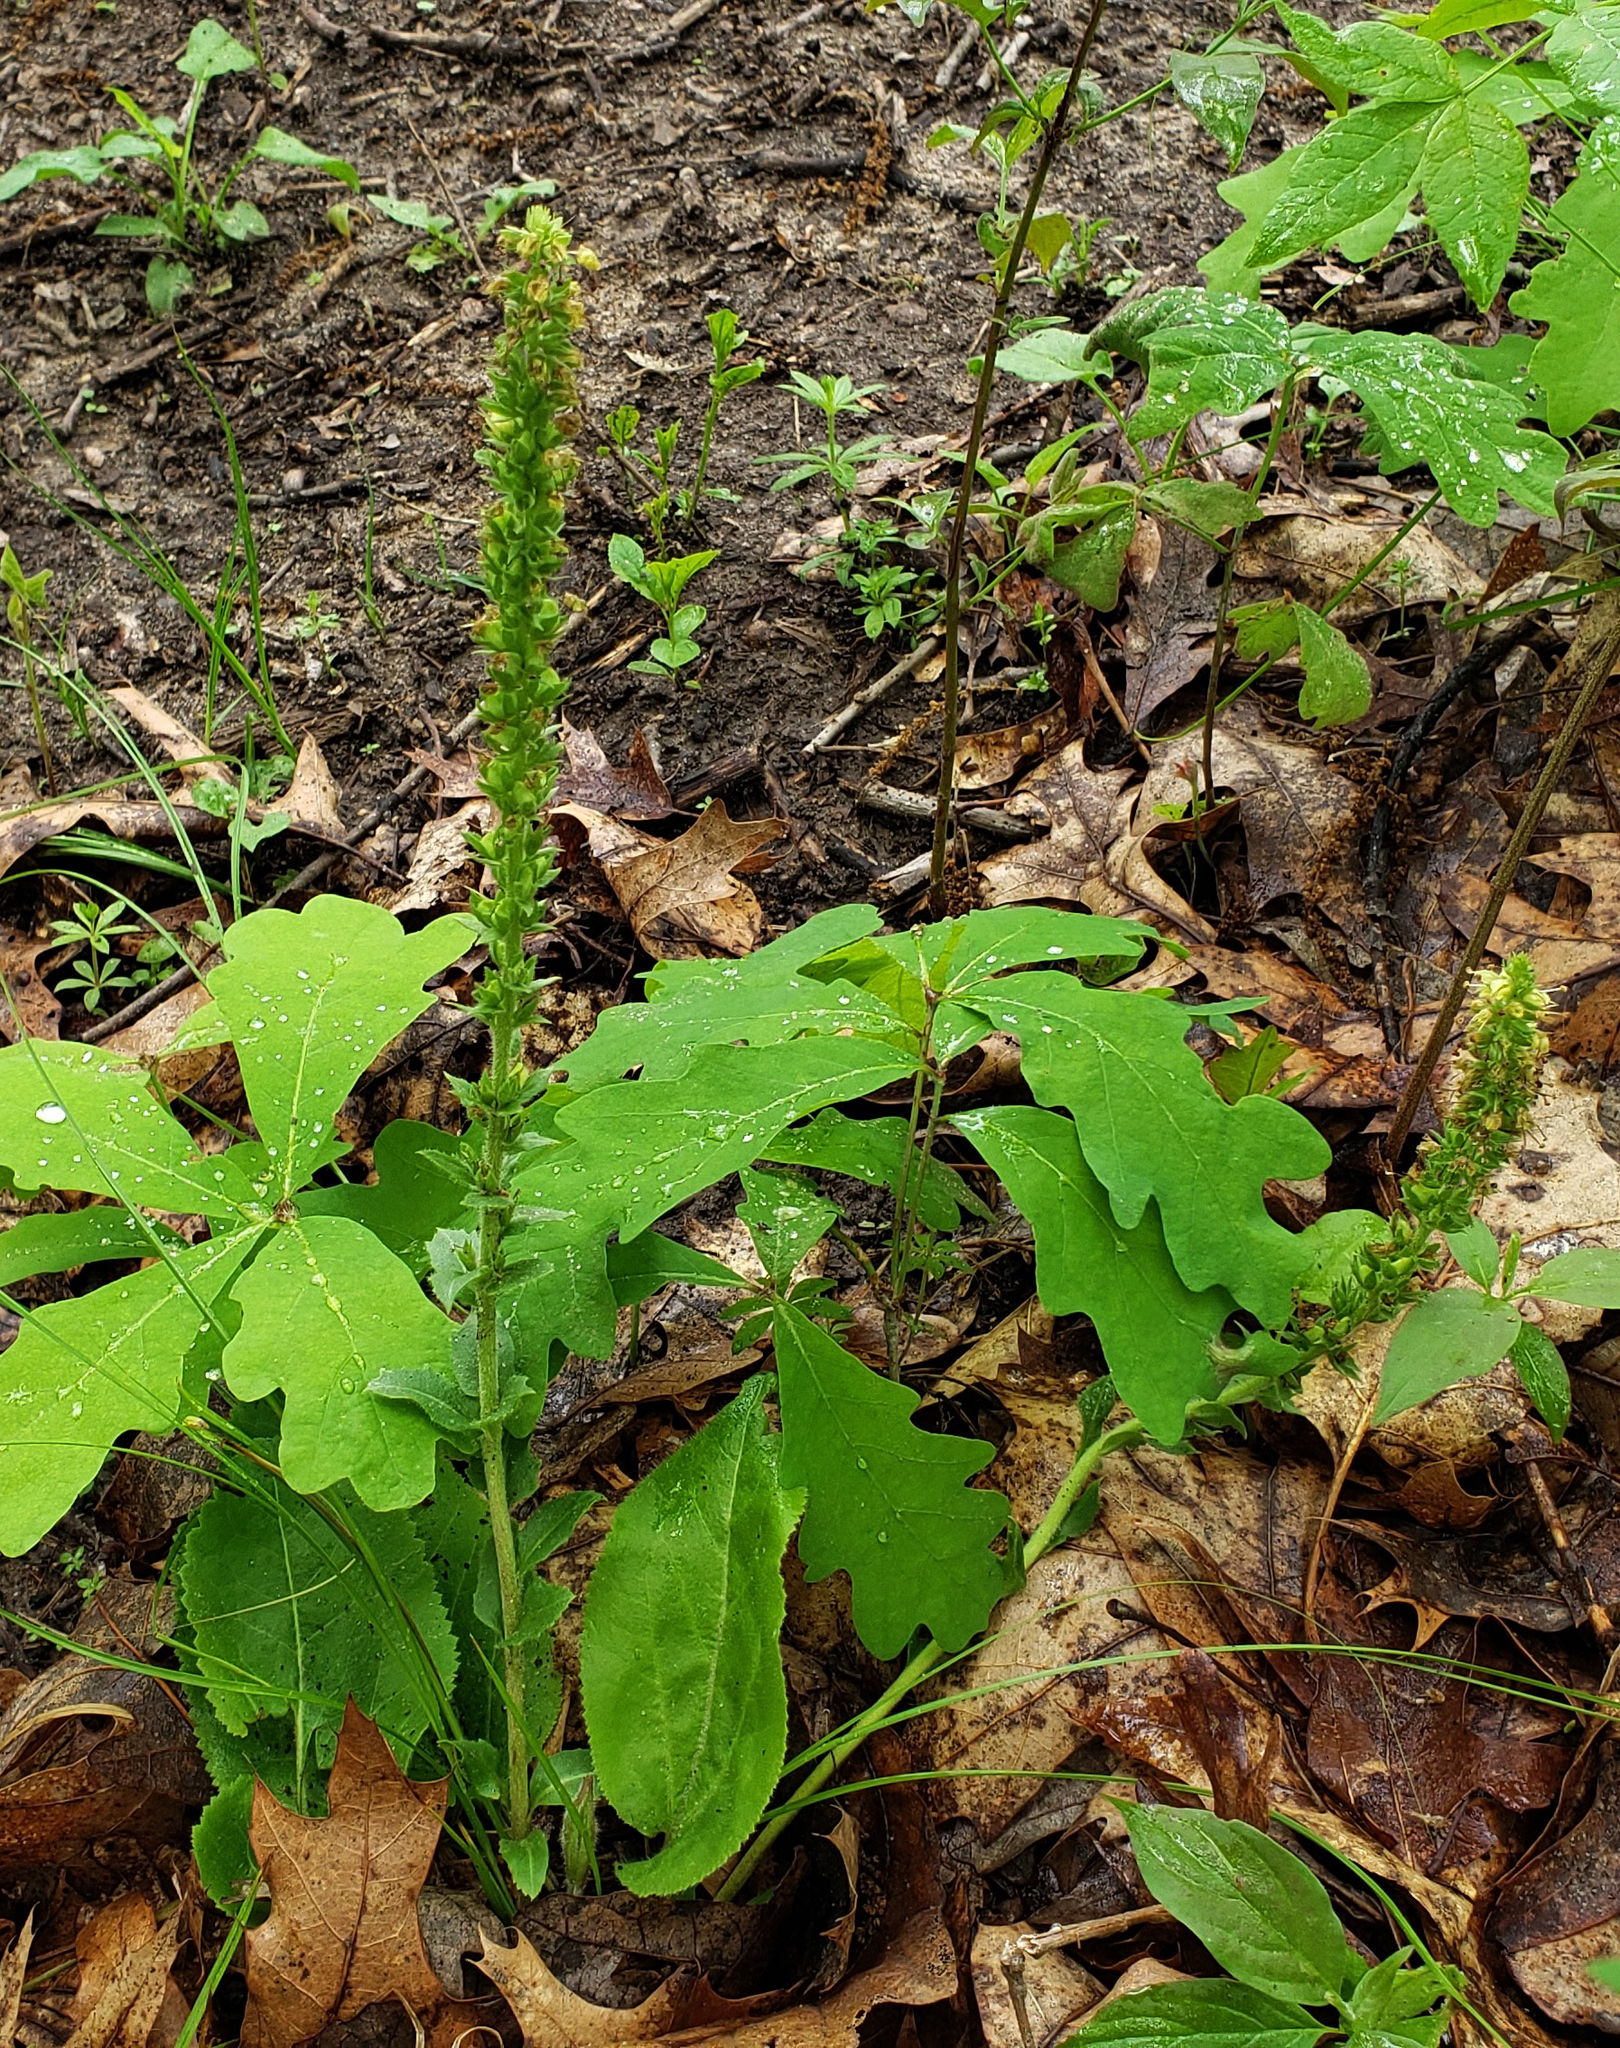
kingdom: Plantae
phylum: Tracheophyta
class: Magnoliopsida
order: Lamiales
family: Plantaginaceae
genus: Synthyris
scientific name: Synthyris bullii
